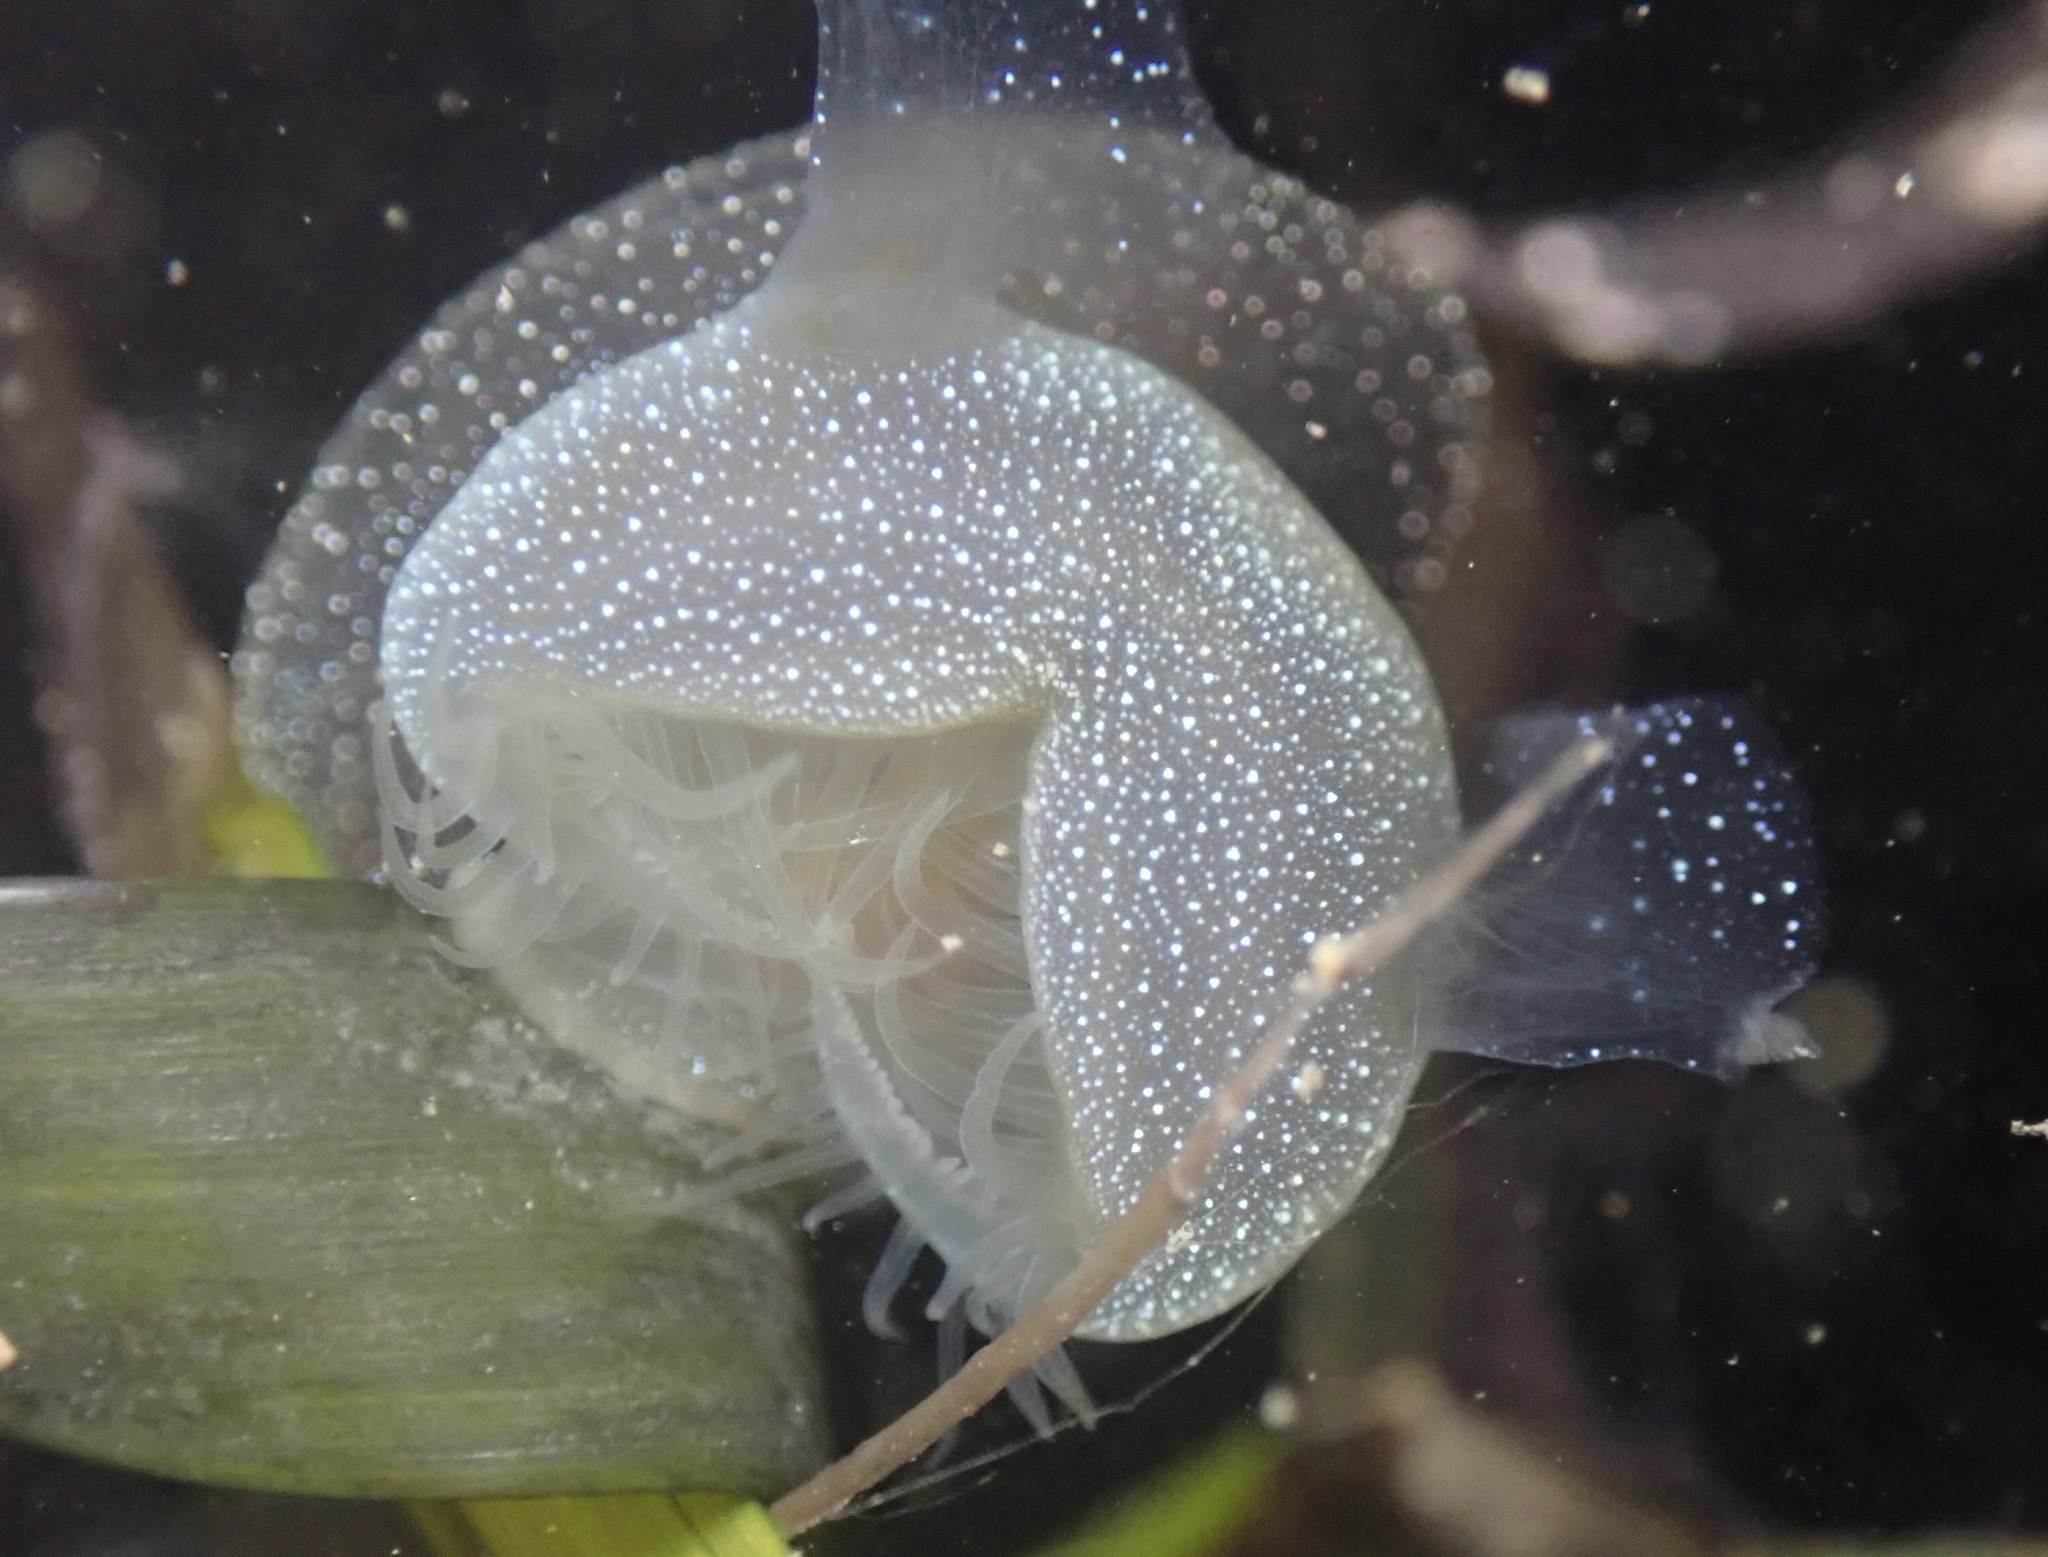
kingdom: Animalia
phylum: Mollusca
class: Gastropoda
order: Nudibranchia
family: Tethydidae
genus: Melibe
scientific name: Melibe leonina
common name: Lion nudibranch
